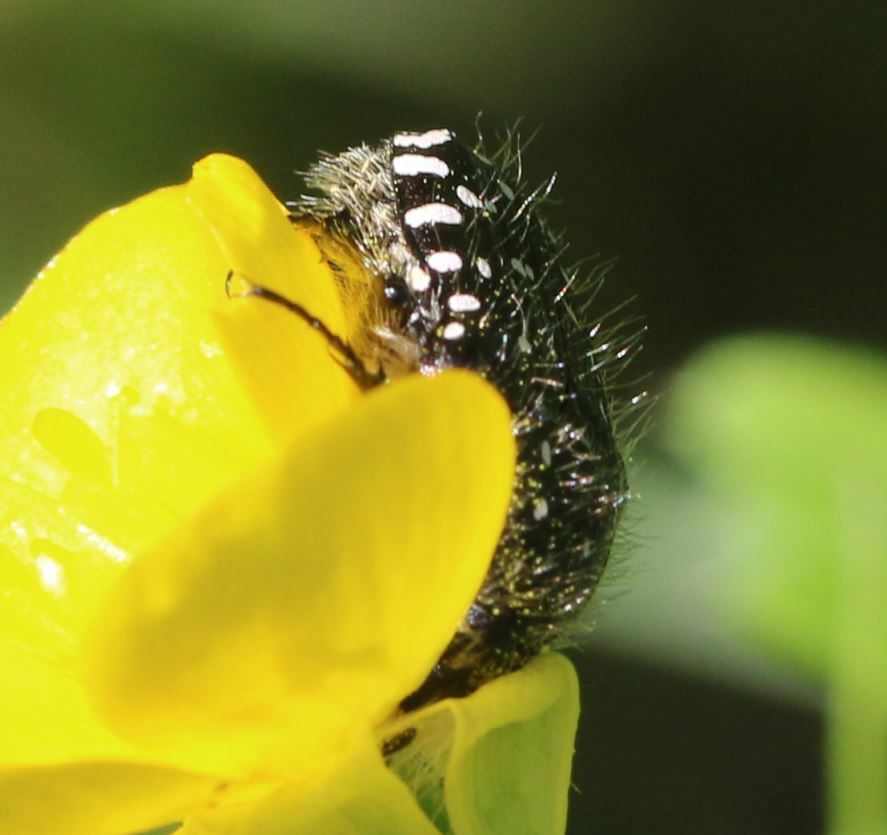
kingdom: Animalia
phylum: Arthropoda
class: Insecta
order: Coleoptera
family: Scarabaeidae
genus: Oxythyrea
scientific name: Oxythyrea funesta
